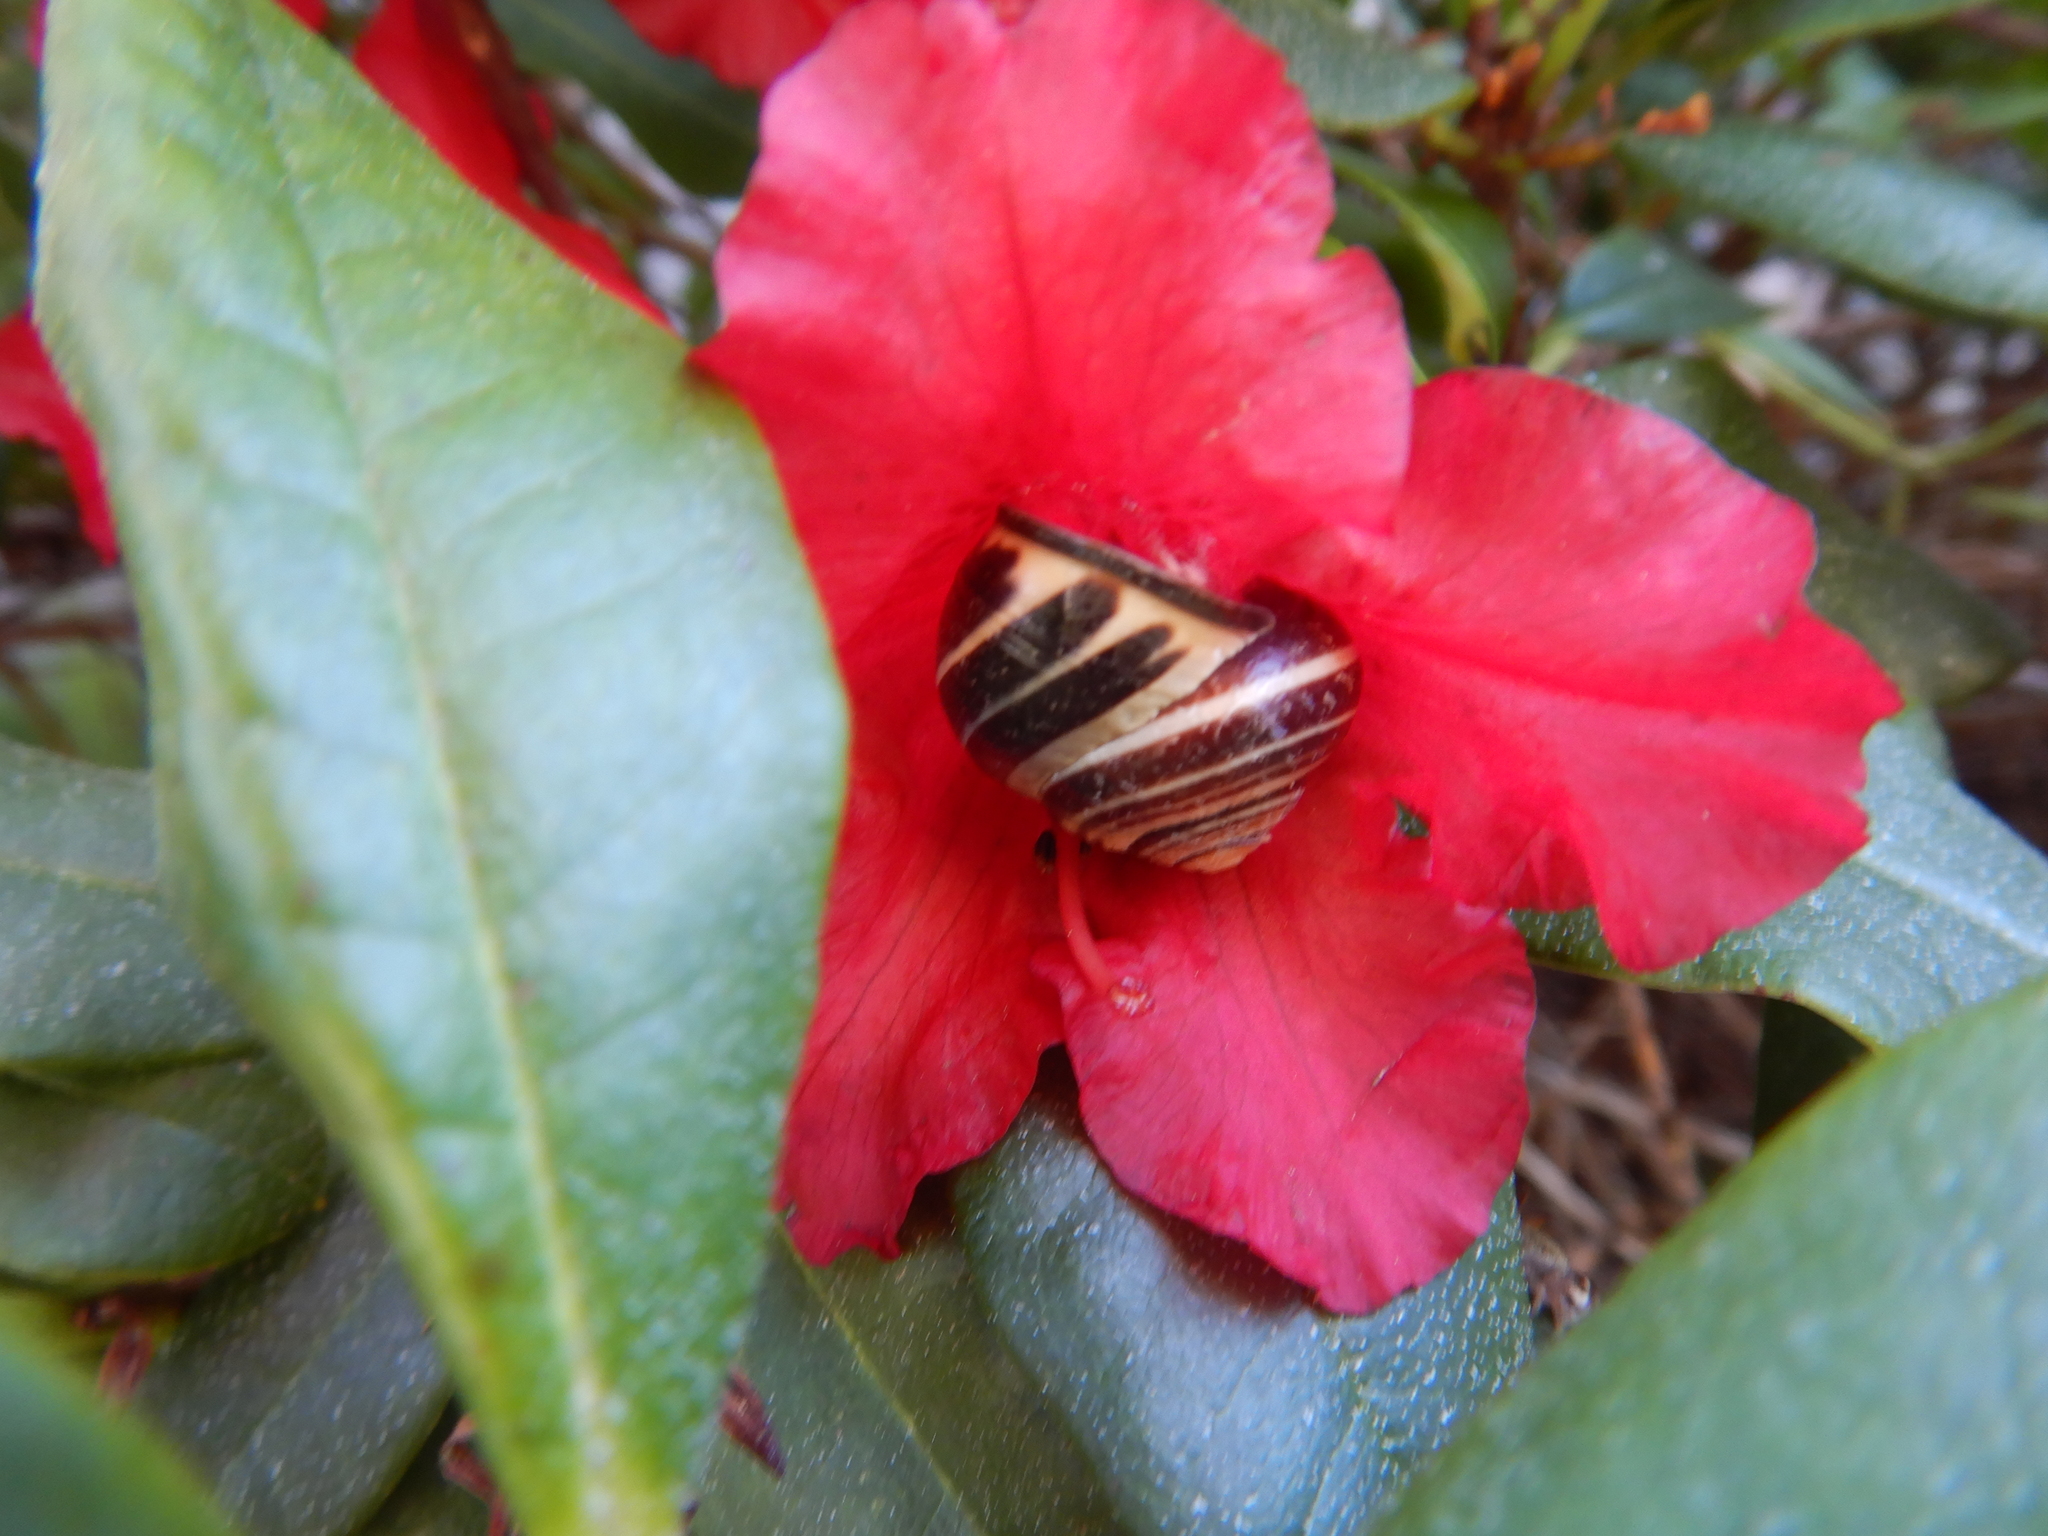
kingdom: Animalia
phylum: Mollusca
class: Gastropoda
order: Stylommatophora
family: Helicidae
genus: Cepaea
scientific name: Cepaea nemoralis
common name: Grovesnail
